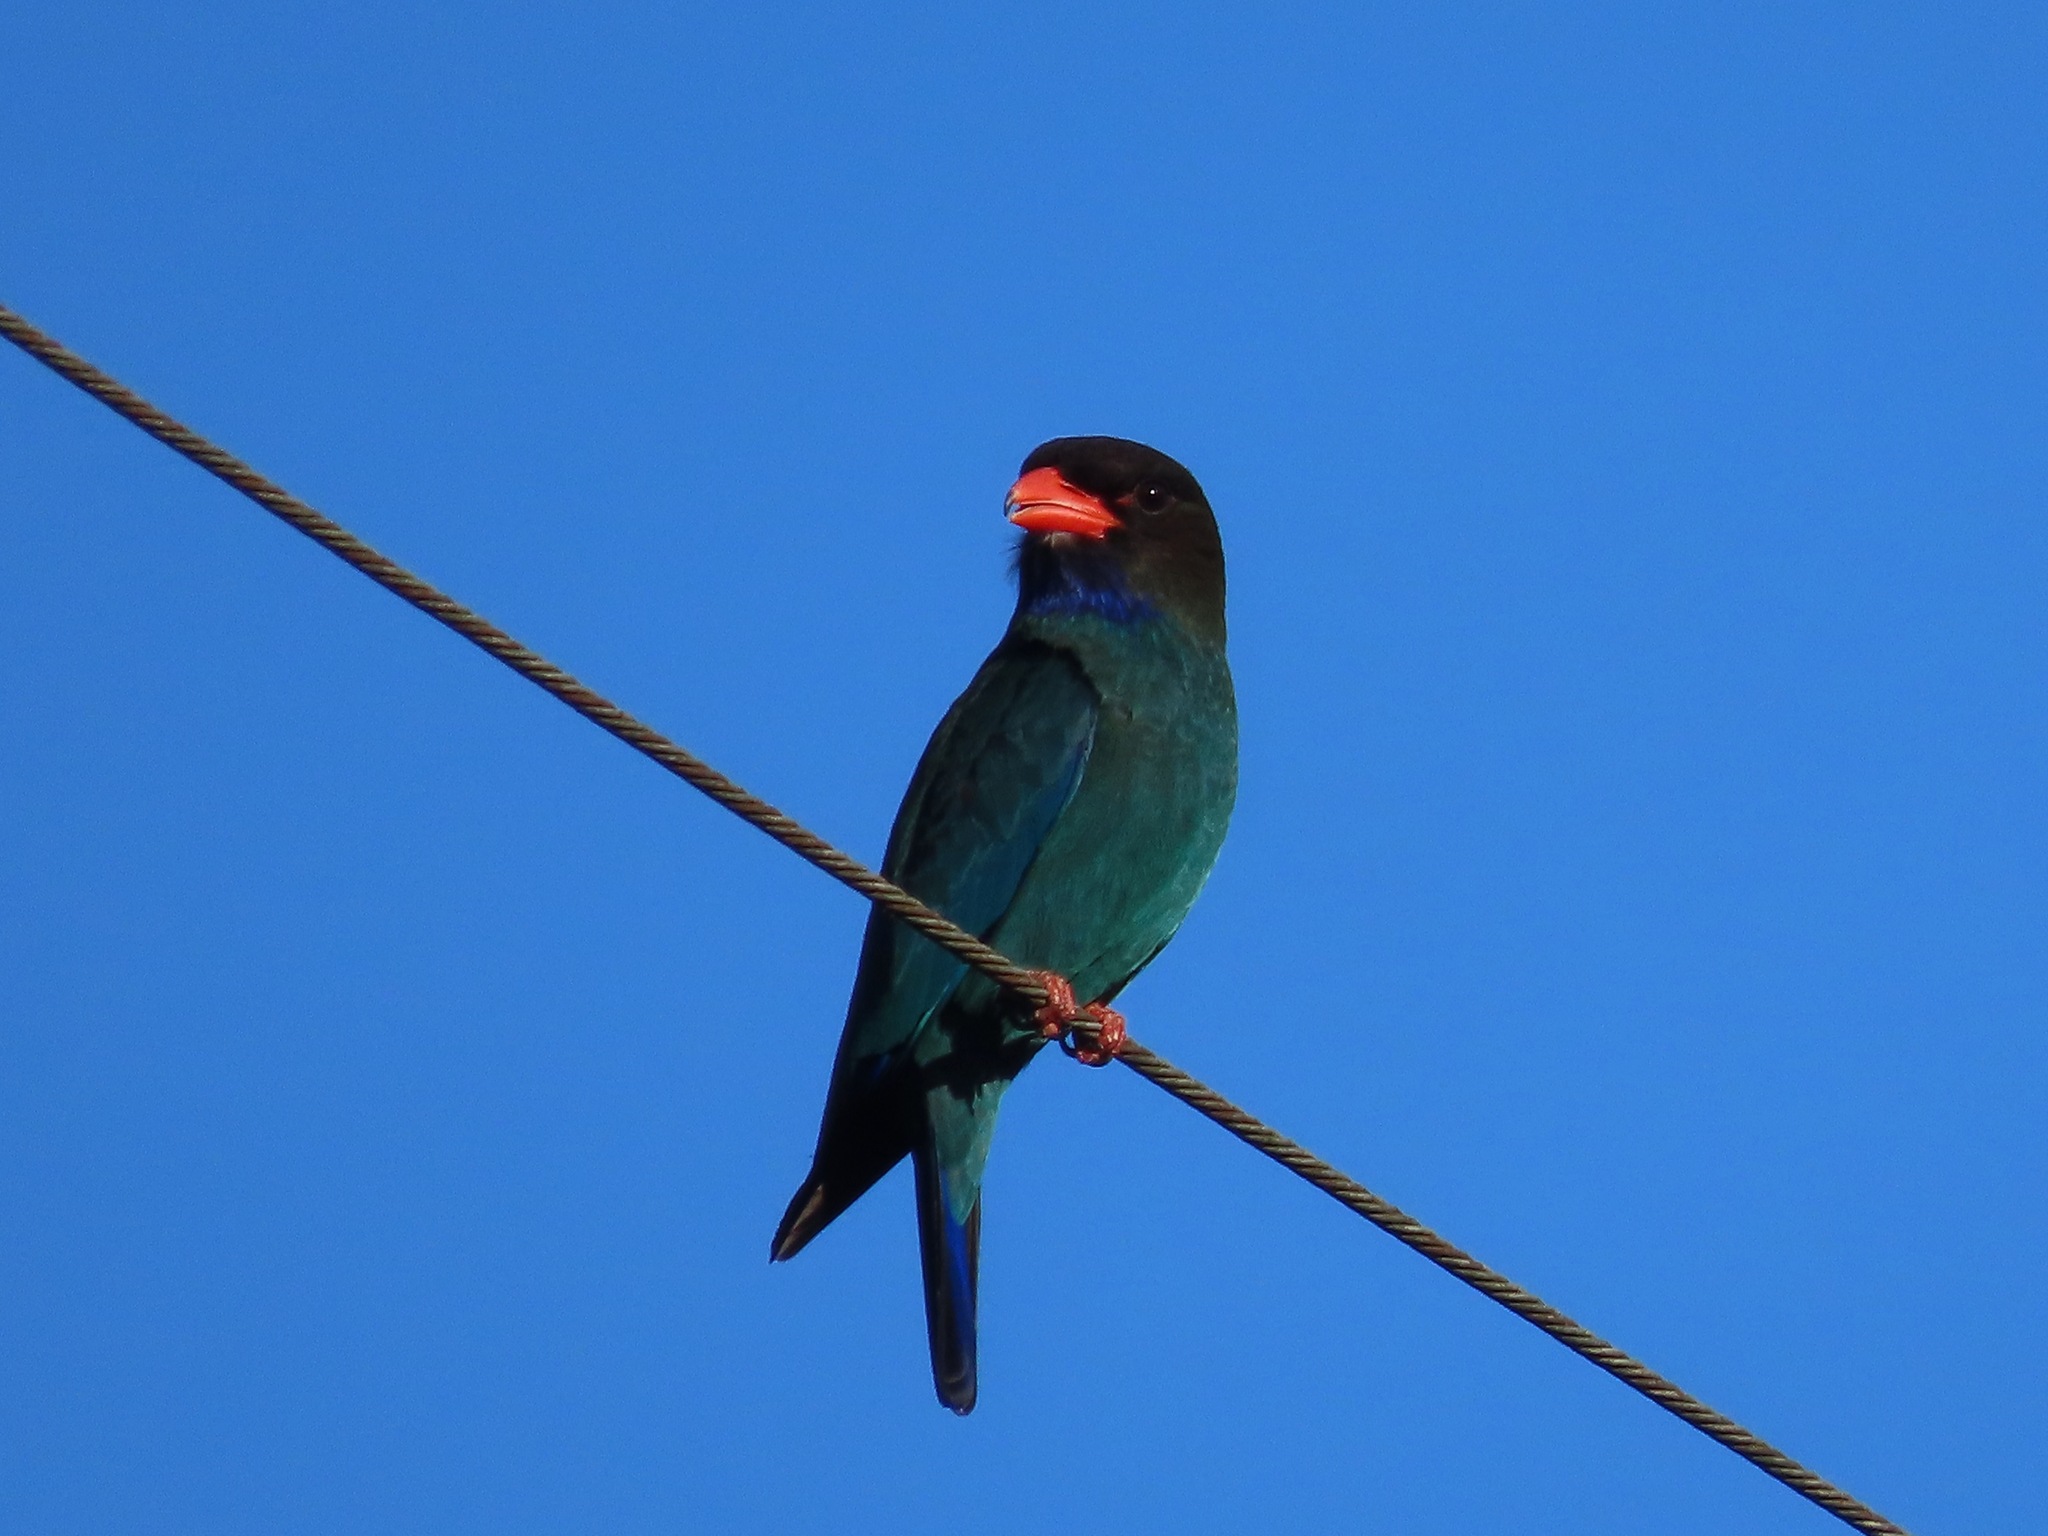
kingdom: Animalia
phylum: Chordata
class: Aves
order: Coraciiformes
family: Coraciidae
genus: Eurystomus
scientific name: Eurystomus orientalis
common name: Oriental dollarbird
